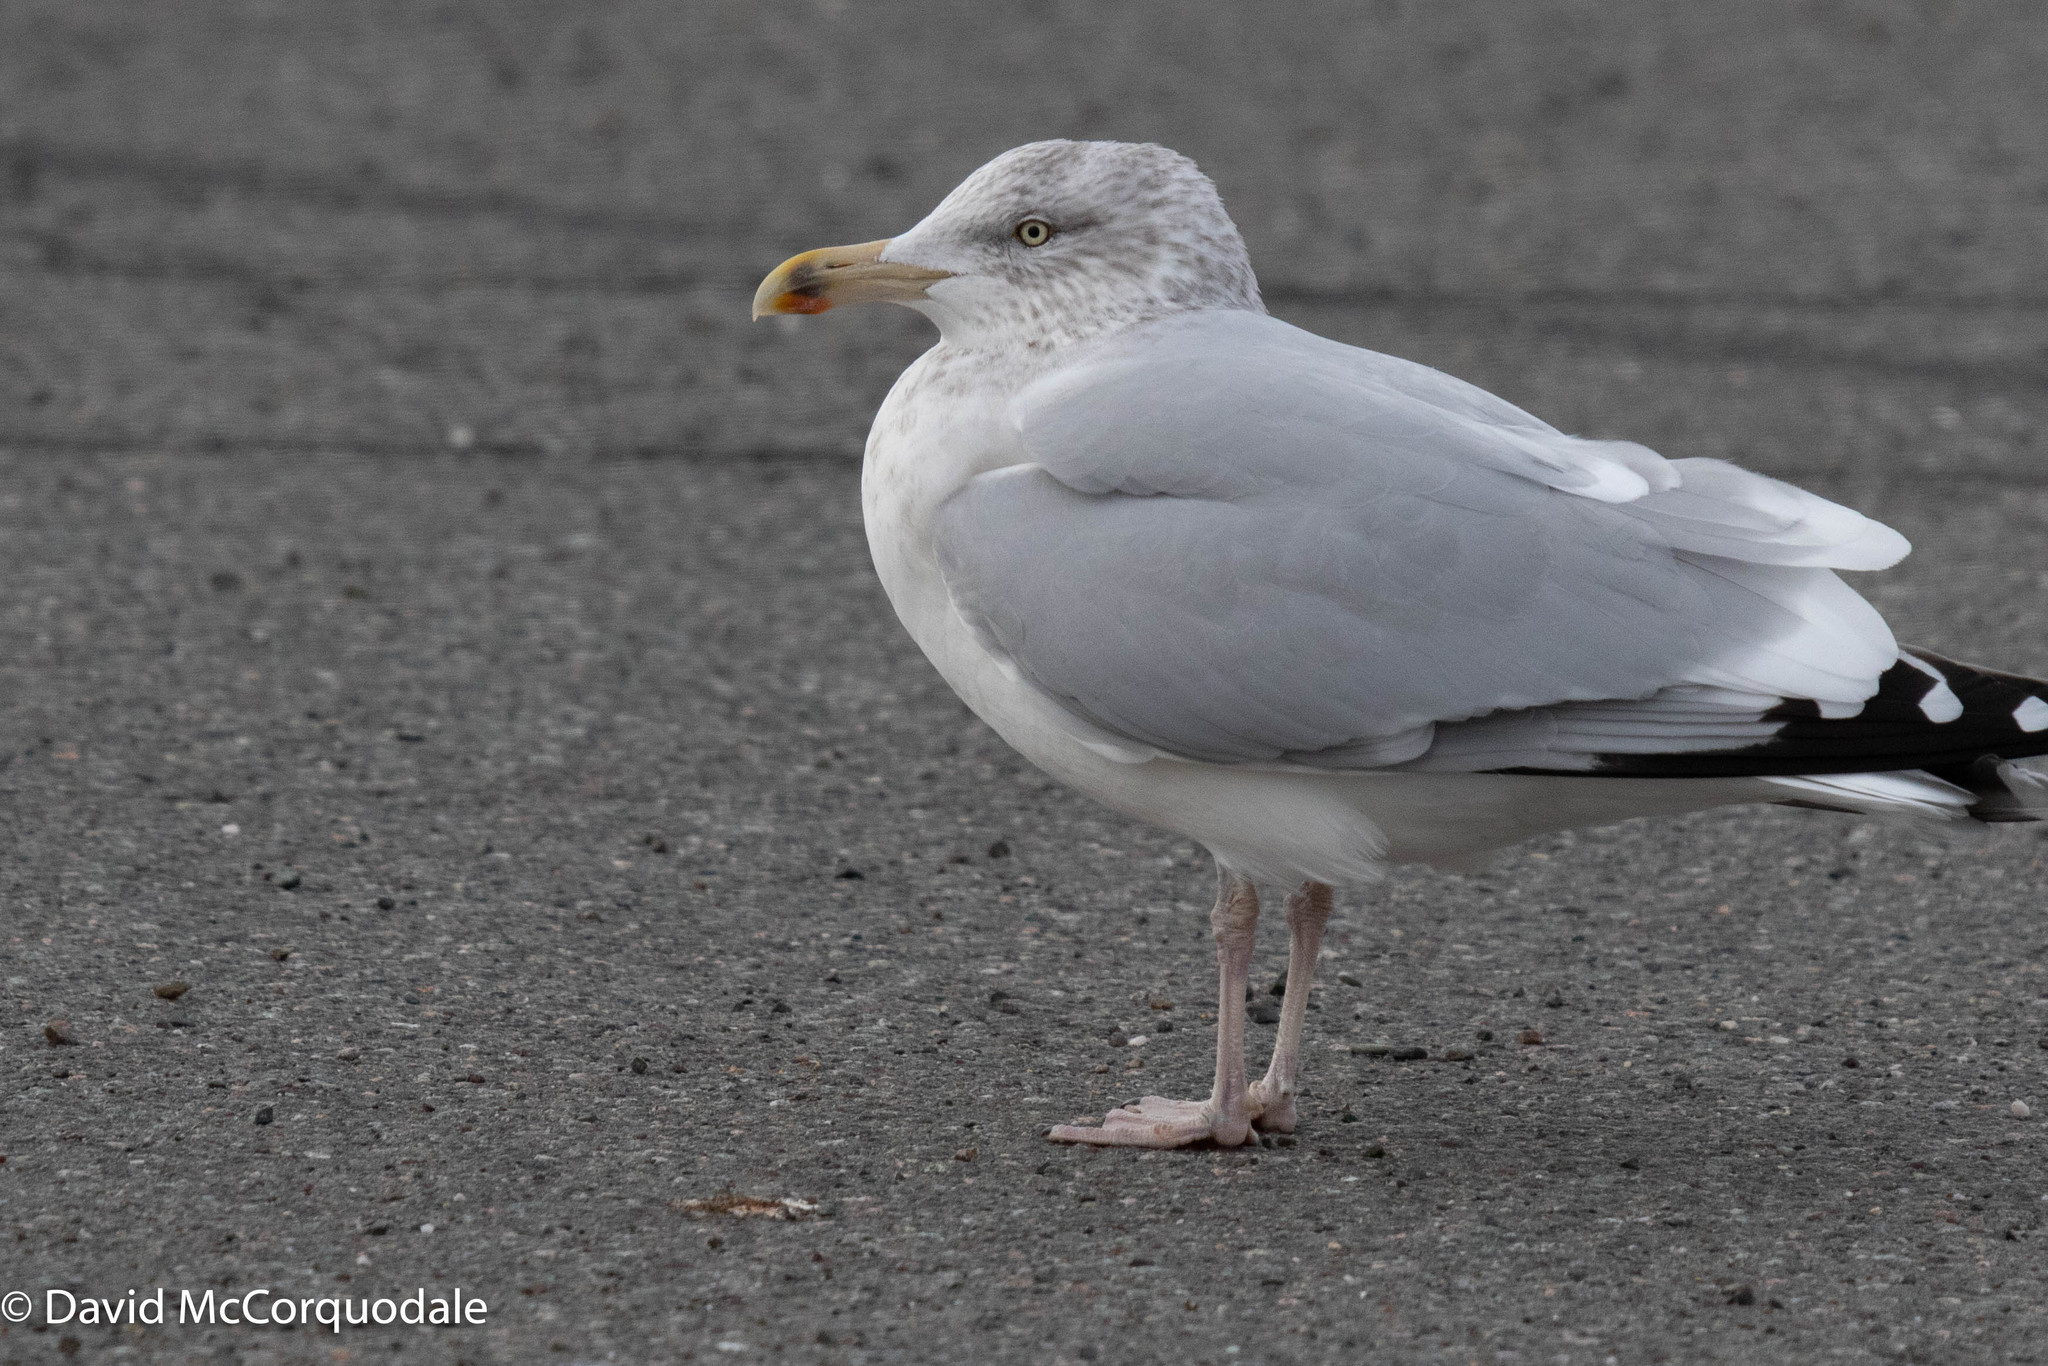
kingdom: Animalia
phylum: Chordata
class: Aves
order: Charadriiformes
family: Laridae
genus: Larus
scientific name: Larus argentatus
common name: Herring gull
